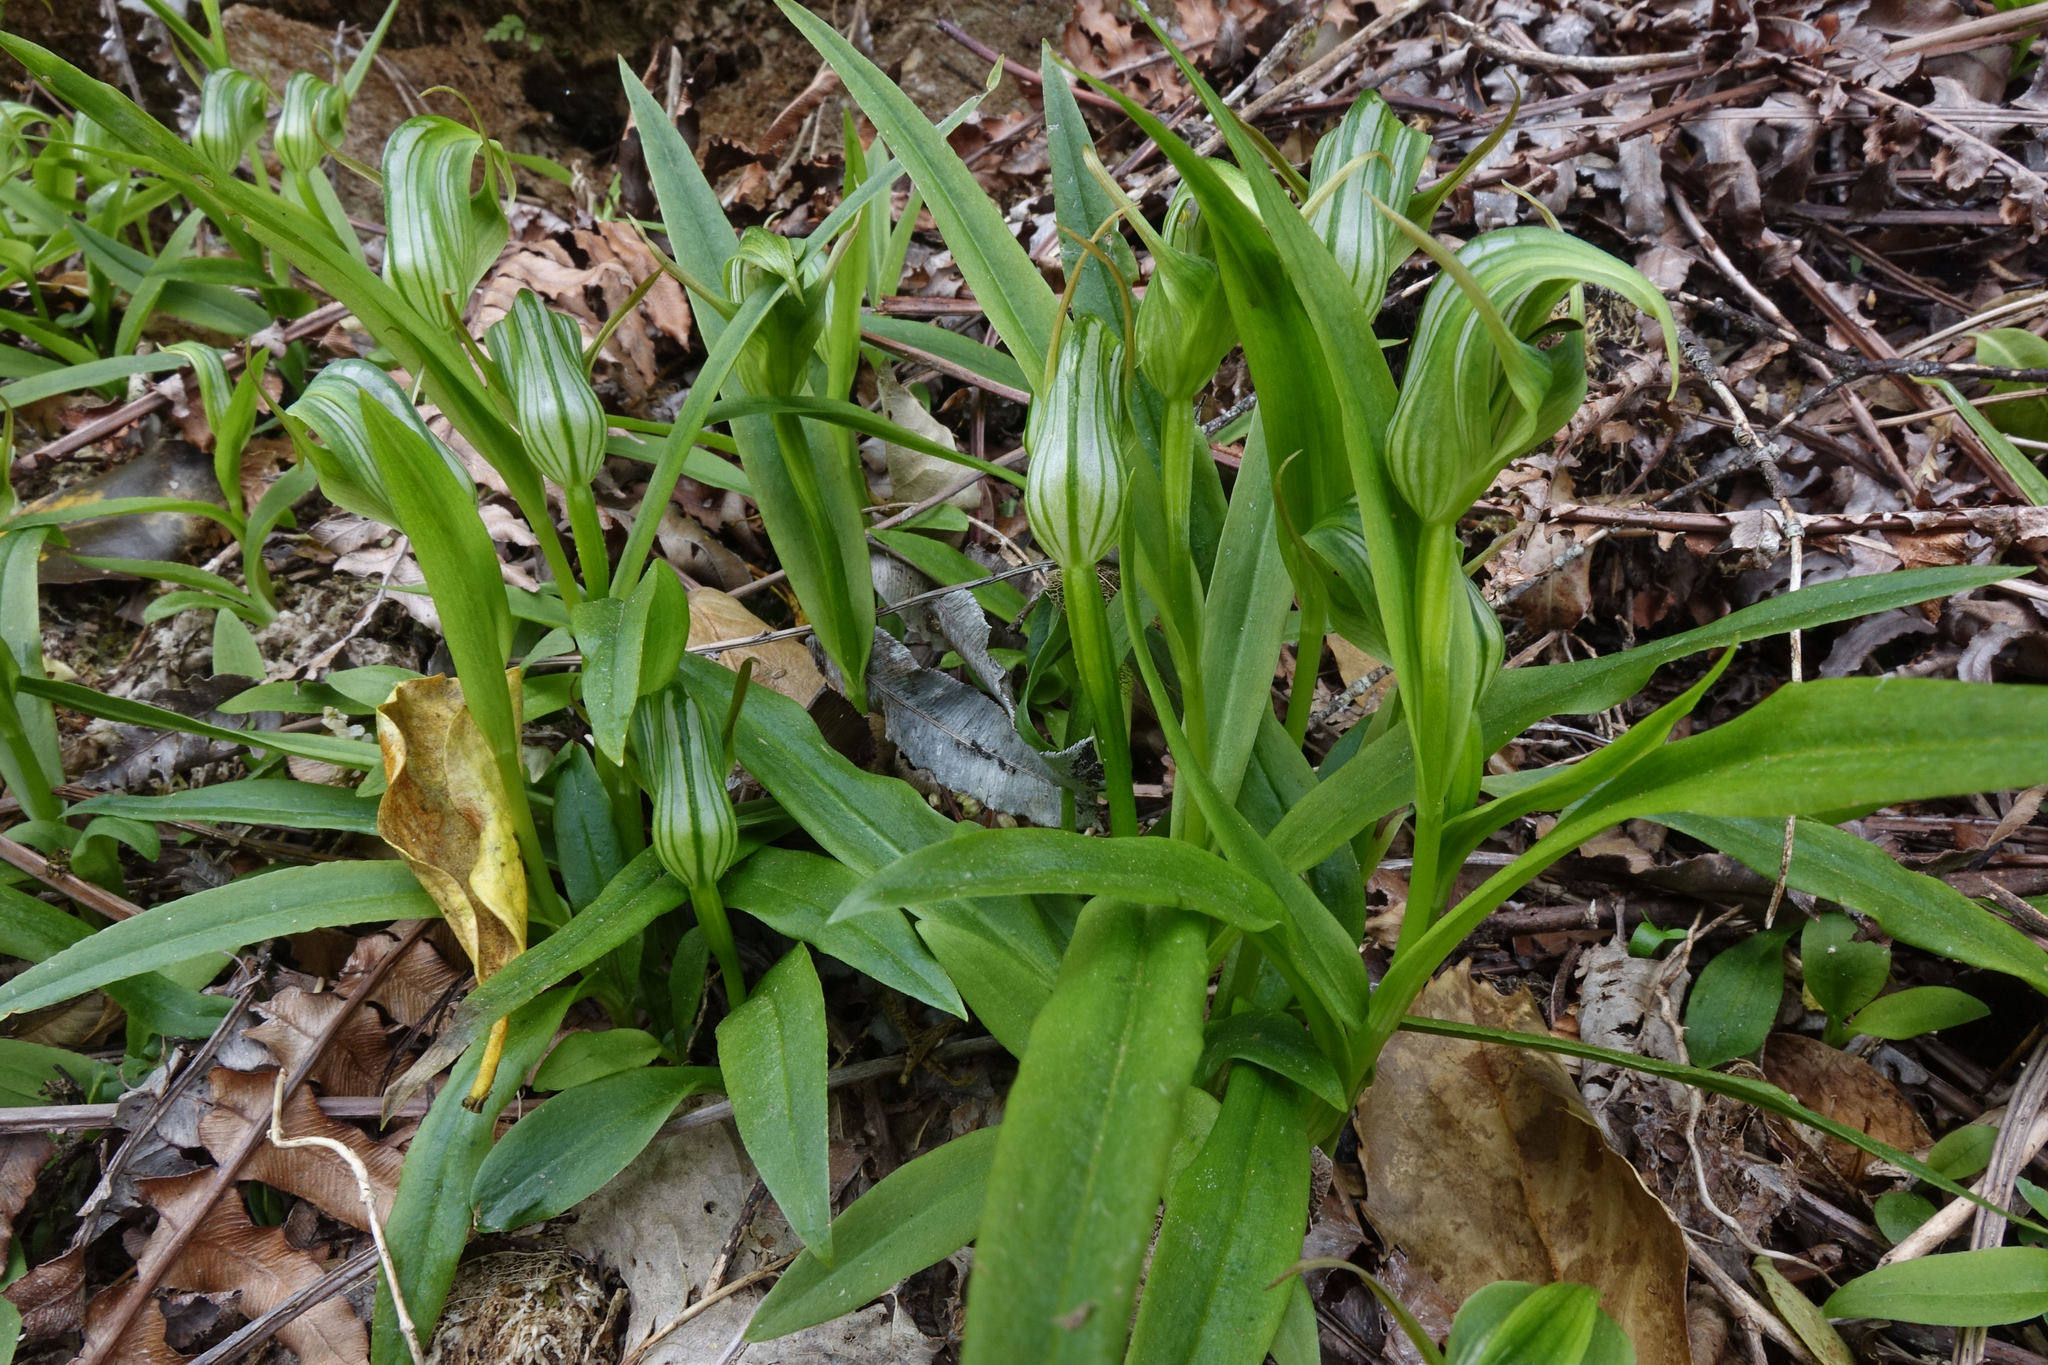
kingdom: Plantae
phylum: Tracheophyta
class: Liliopsida
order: Asparagales
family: Orchidaceae
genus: Pterostylis
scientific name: Pterostylis areolata
